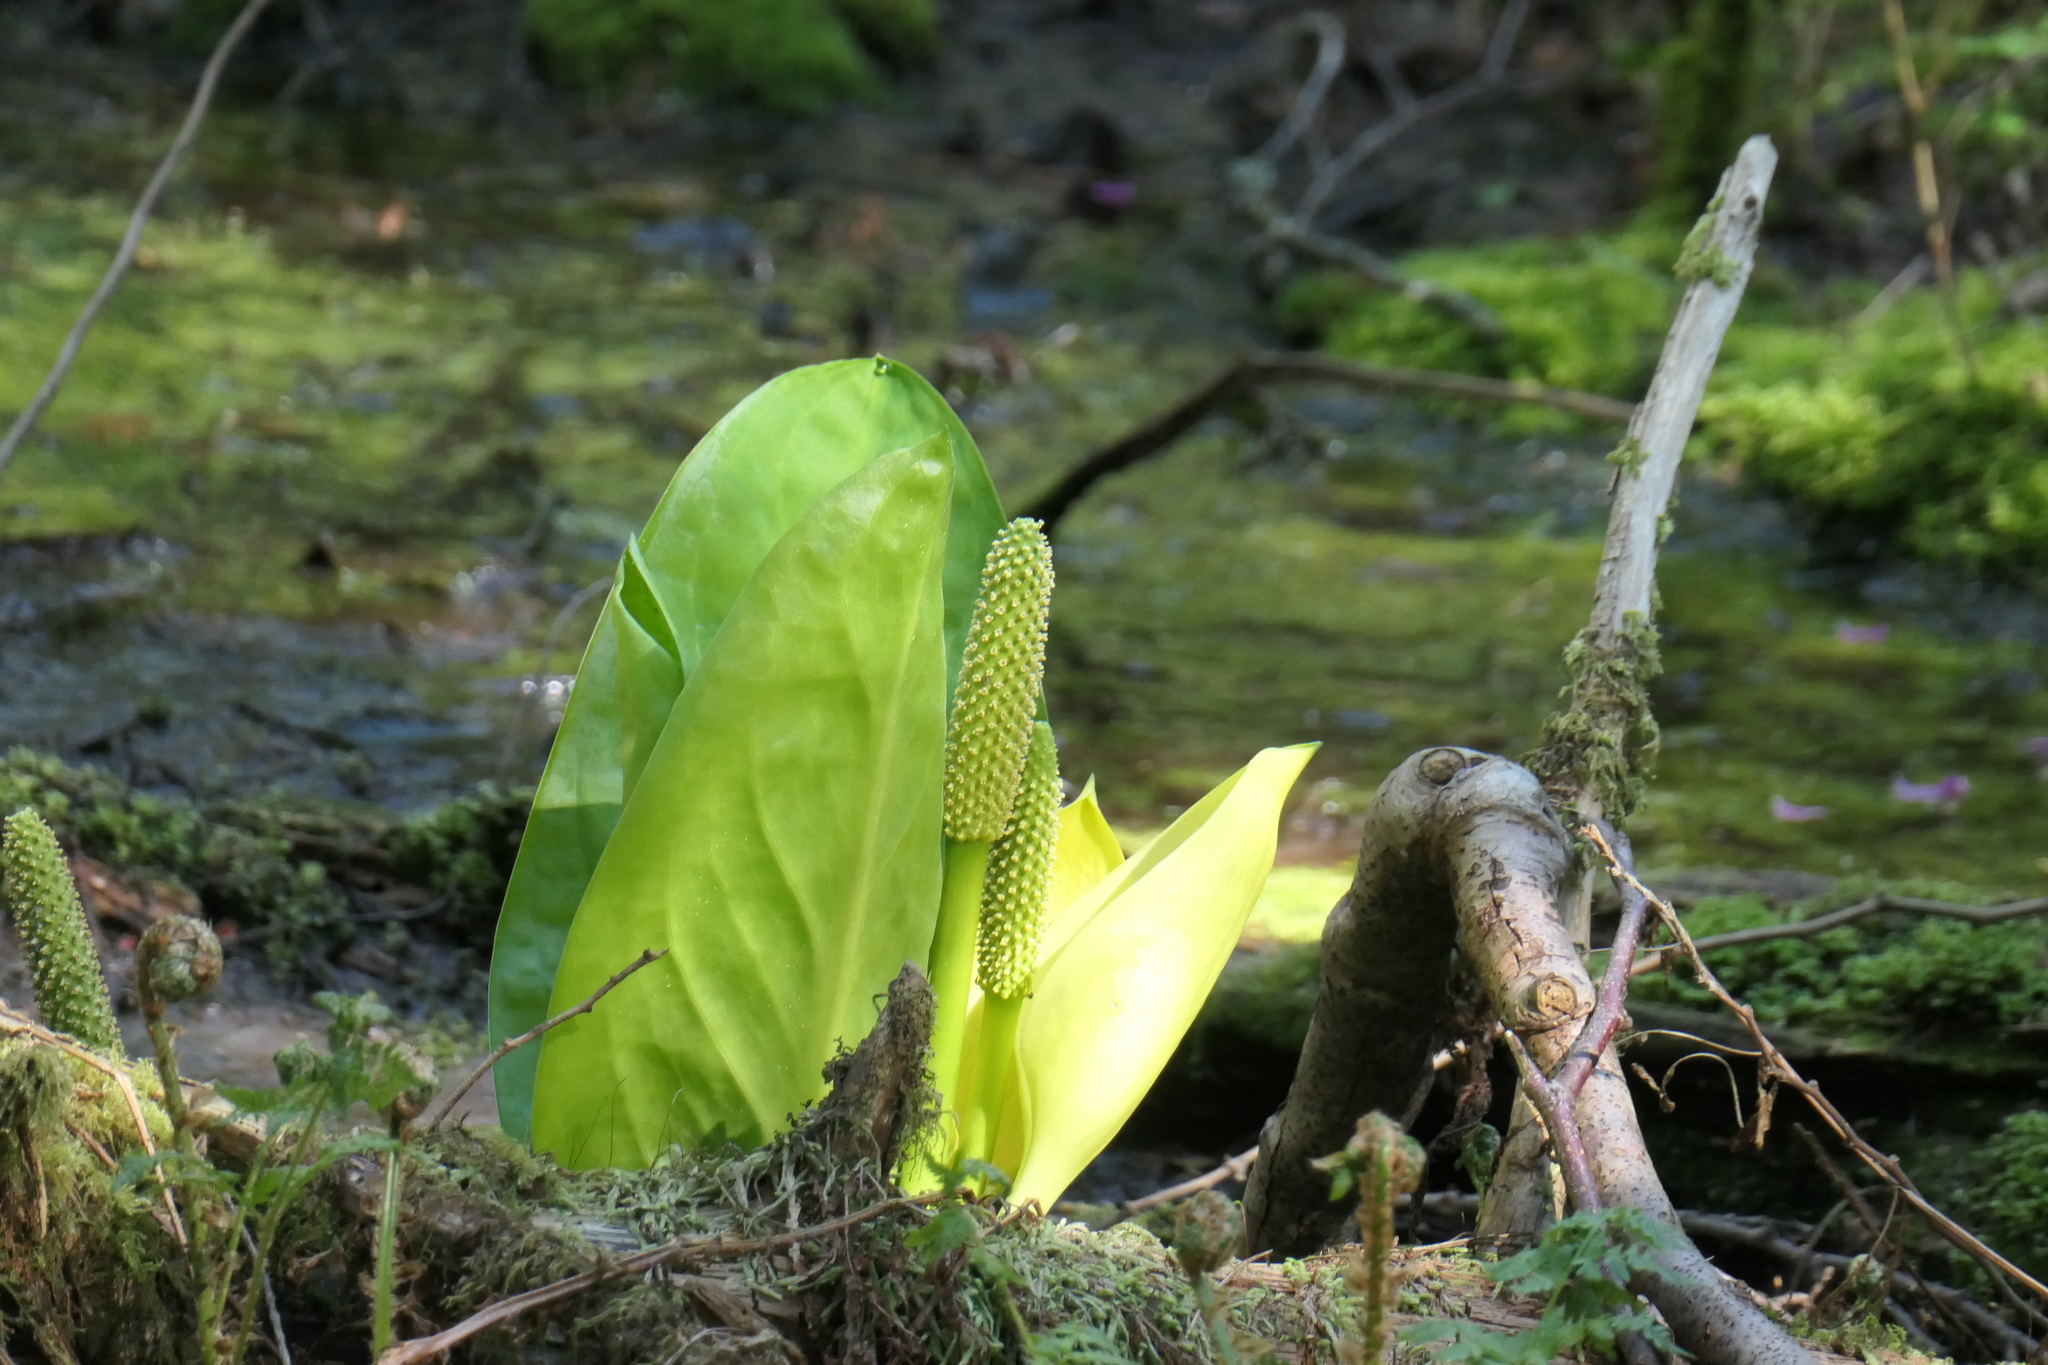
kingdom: Plantae
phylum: Tracheophyta
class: Liliopsida
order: Alismatales
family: Araceae
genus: Lysichiton
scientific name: Lysichiton americanus
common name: American skunk cabbage
